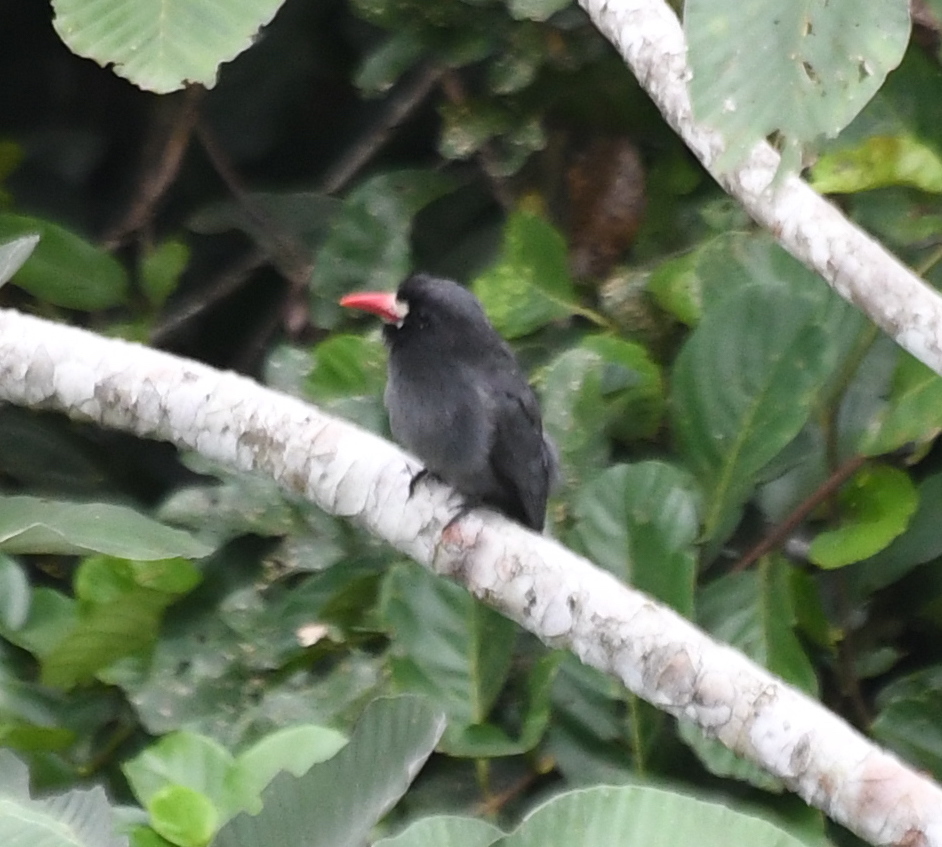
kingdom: Animalia
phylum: Chordata
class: Aves
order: Piciformes
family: Bucconidae
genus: Monasa
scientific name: Monasa morphoeus
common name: White-fronted nunbird
